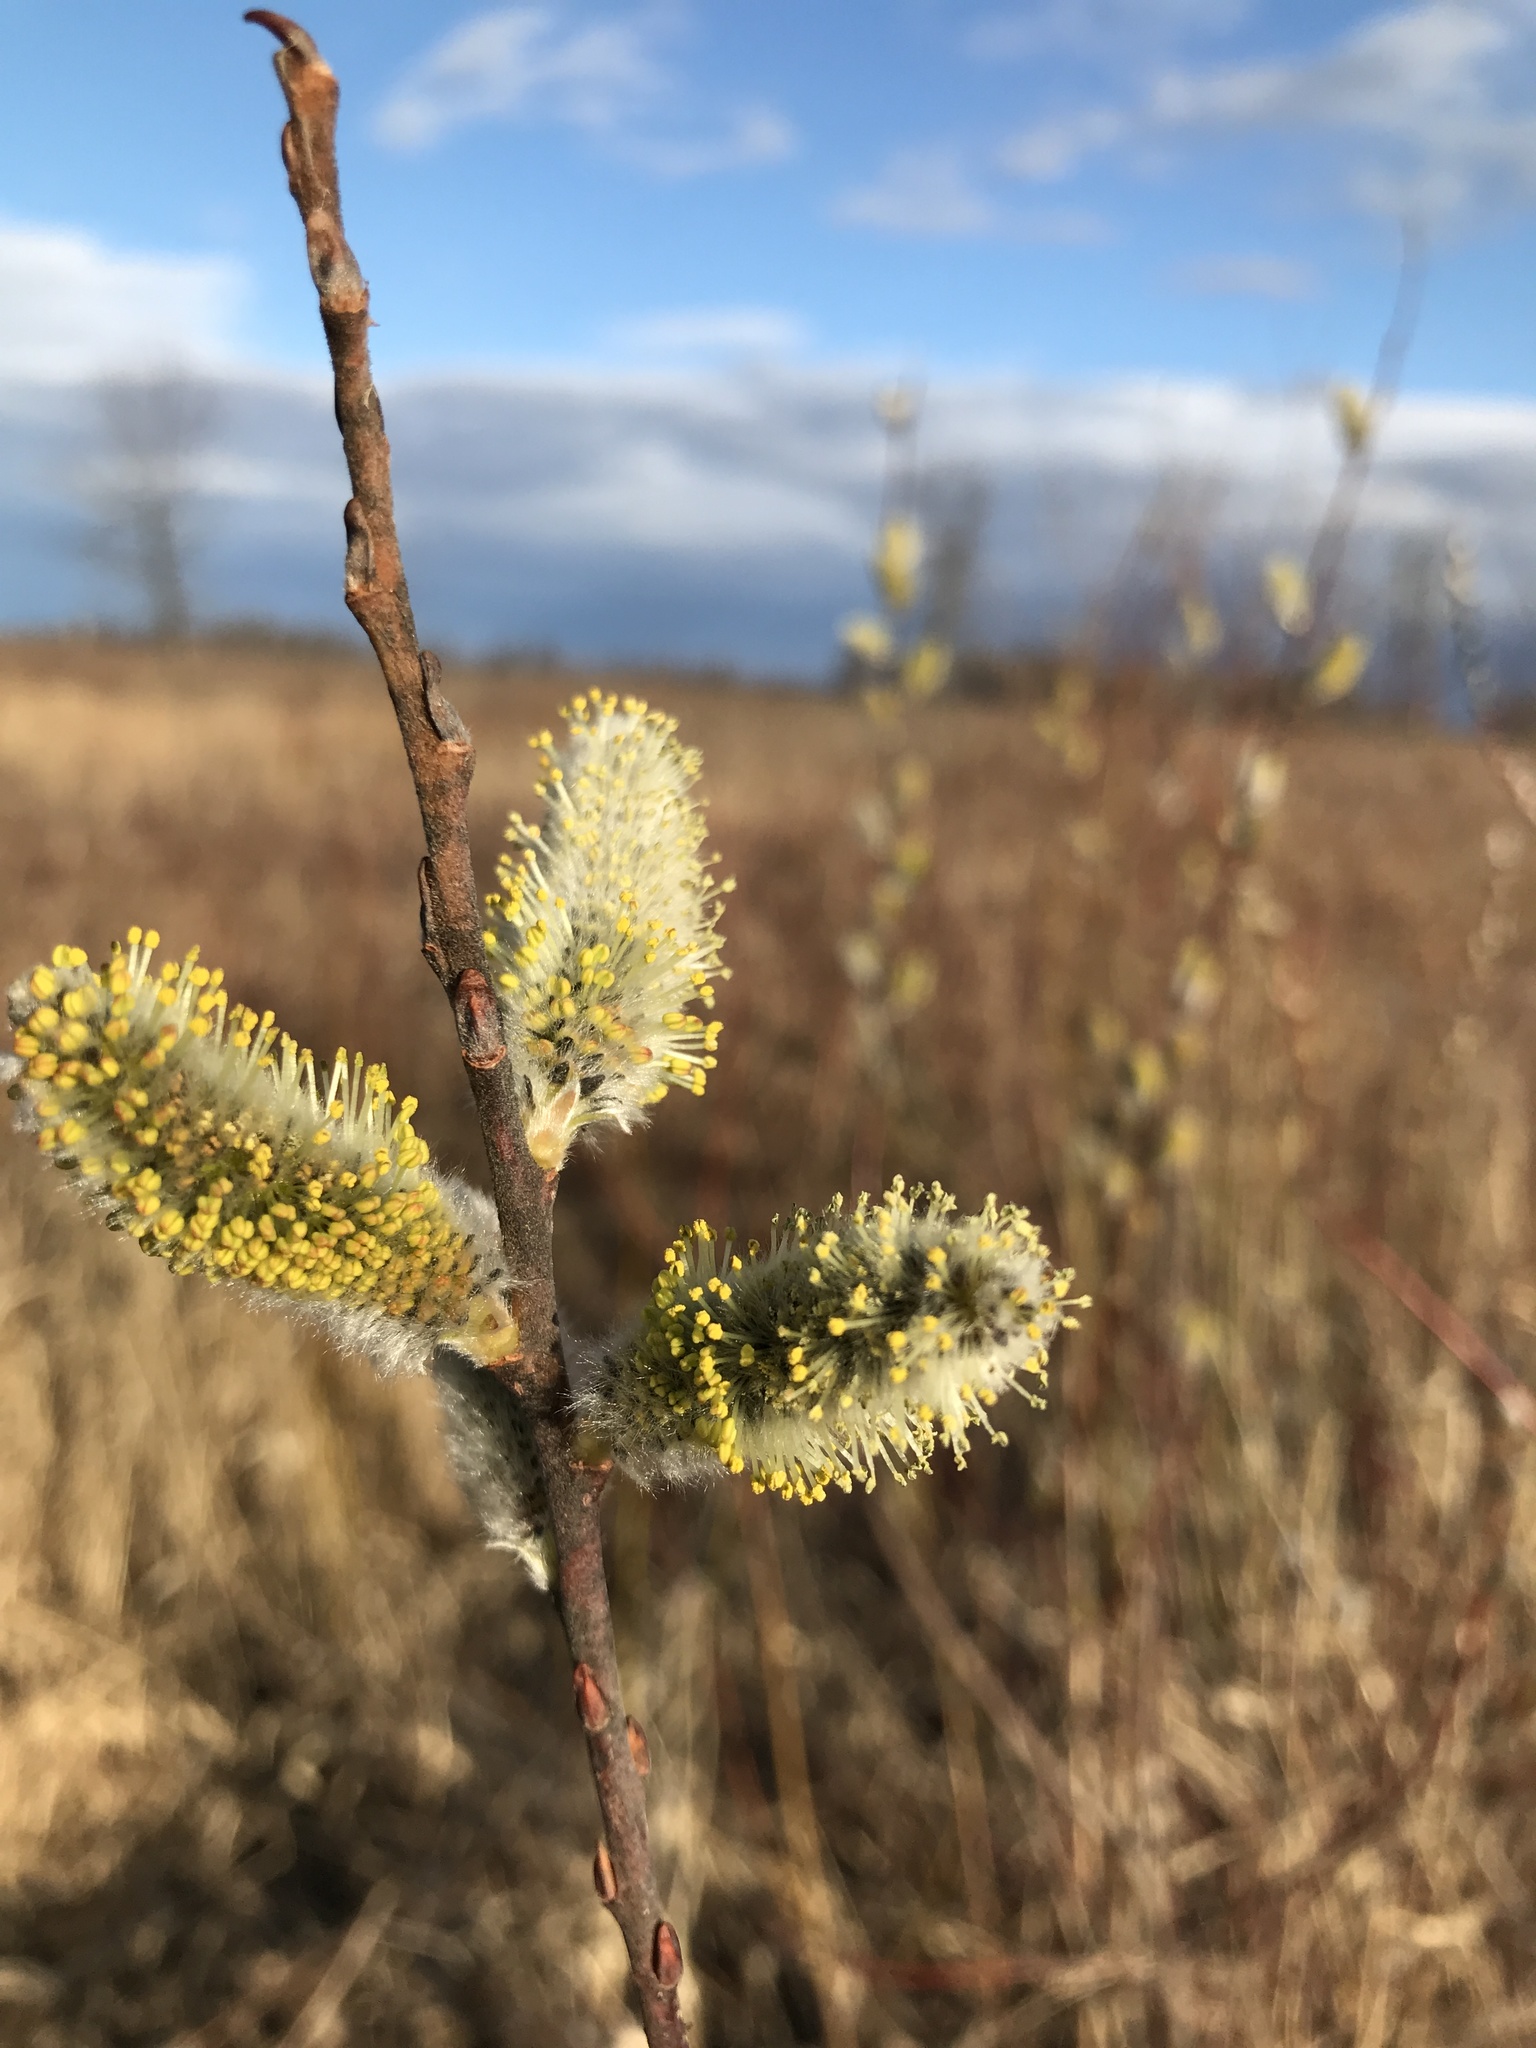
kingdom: Plantae
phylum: Tracheophyta
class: Magnoliopsida
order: Malpighiales
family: Salicaceae
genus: Salix
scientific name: Salix discolor
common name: Glaucous willow
